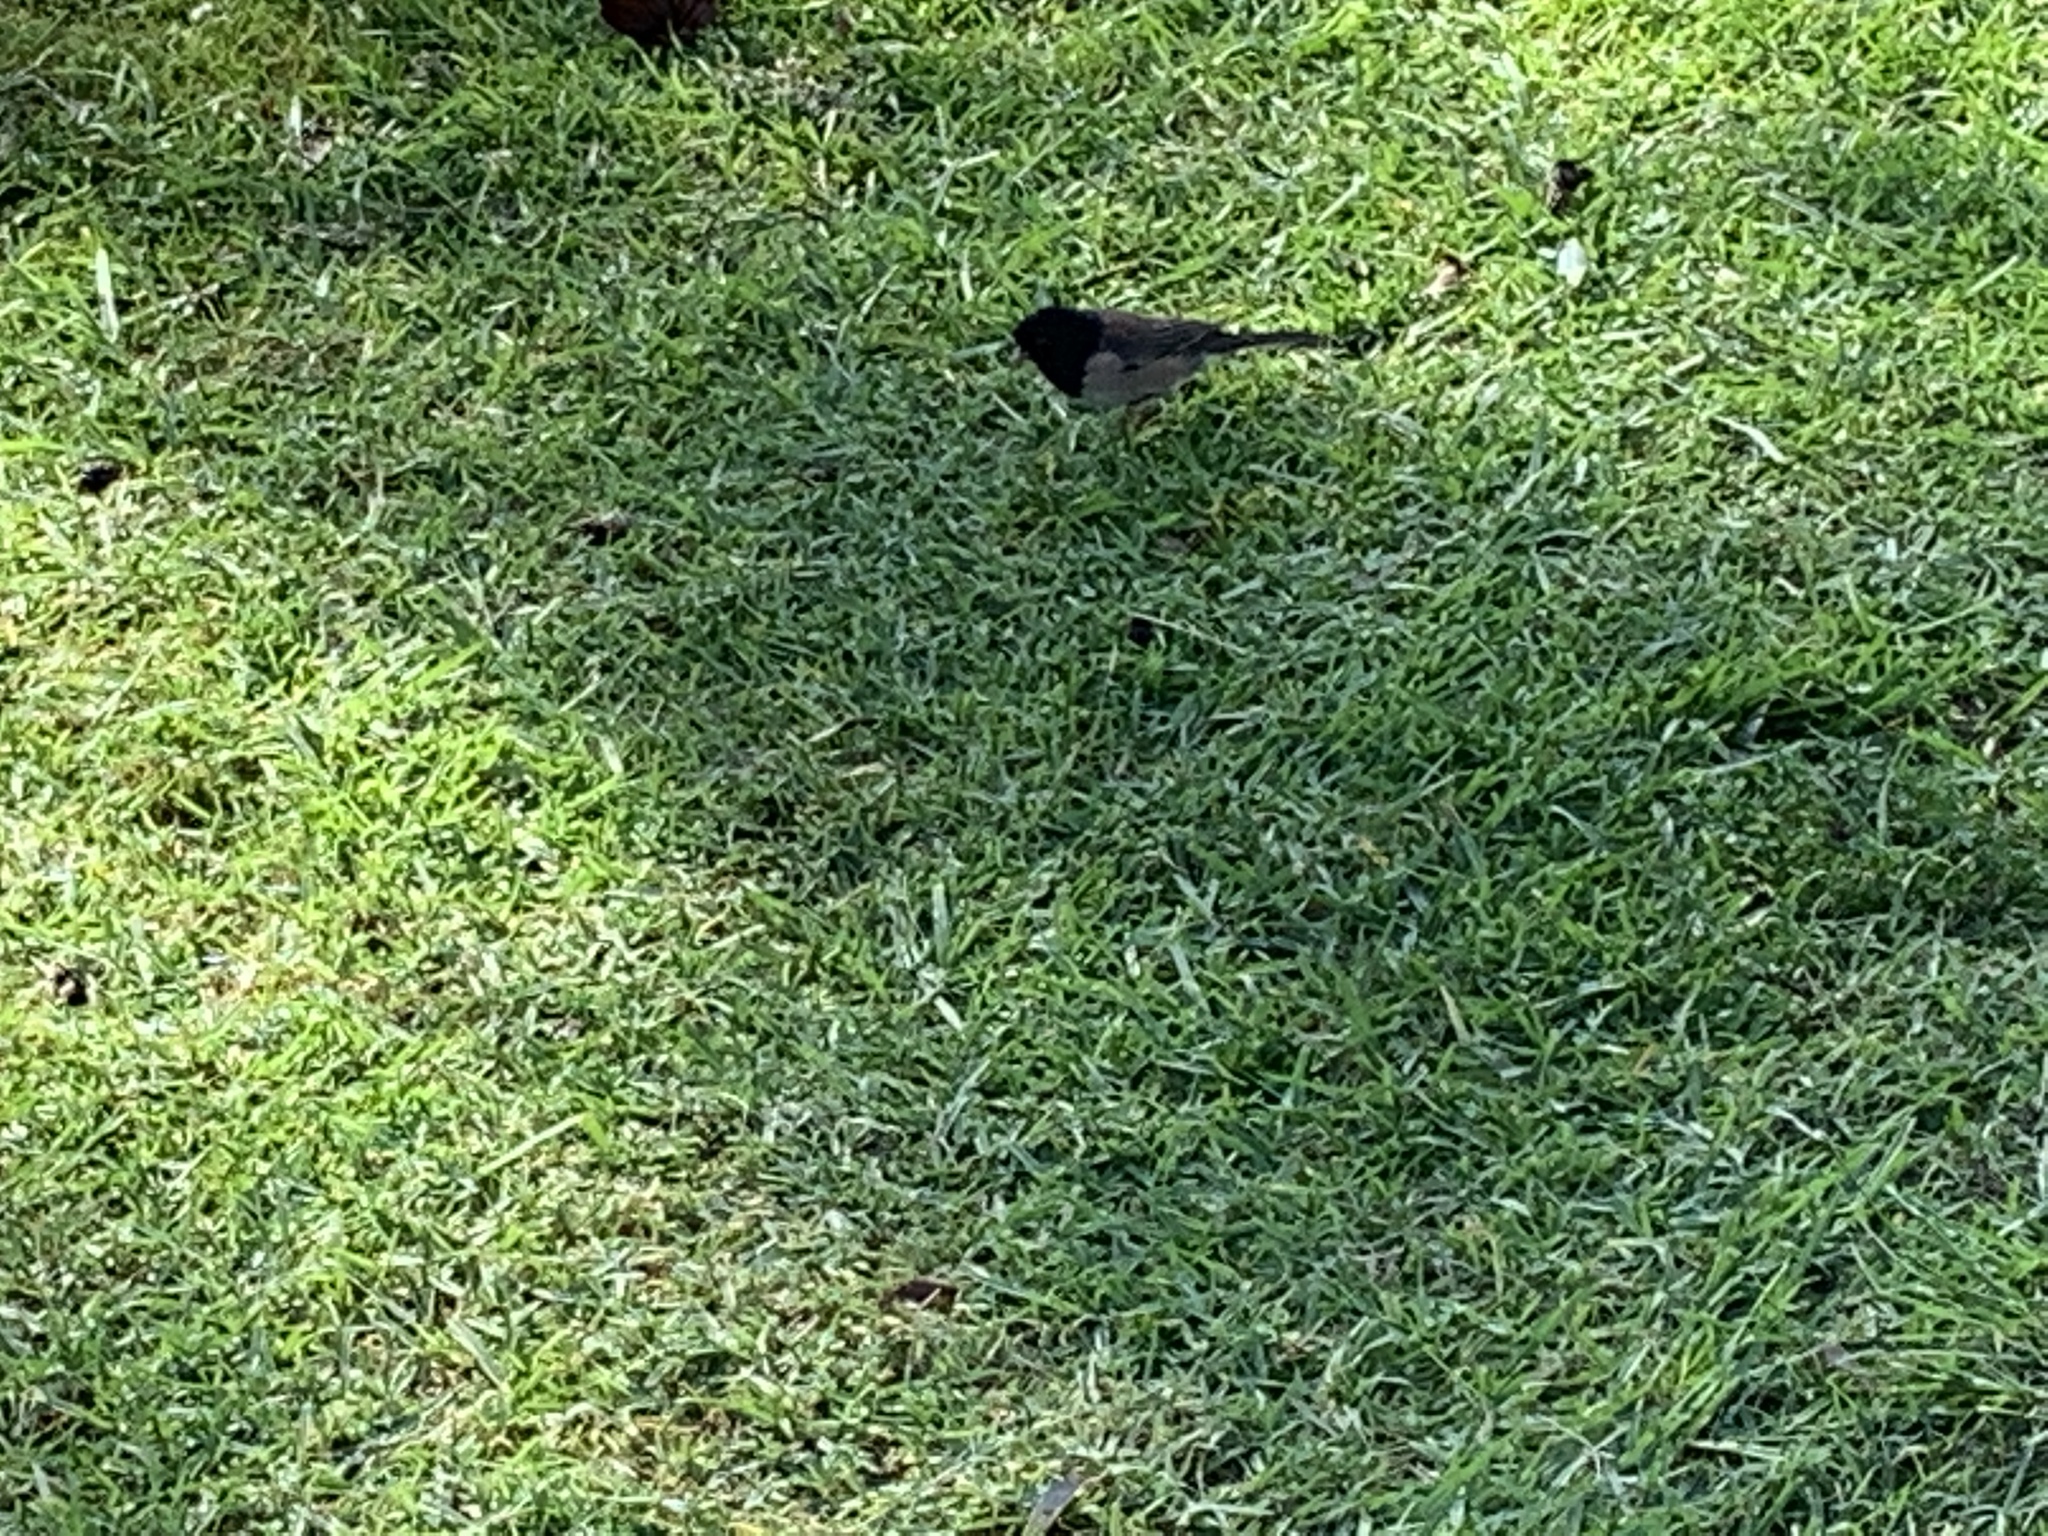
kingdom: Animalia
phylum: Chordata
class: Aves
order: Passeriformes
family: Passerellidae
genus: Junco
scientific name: Junco hyemalis
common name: Dark-eyed junco
